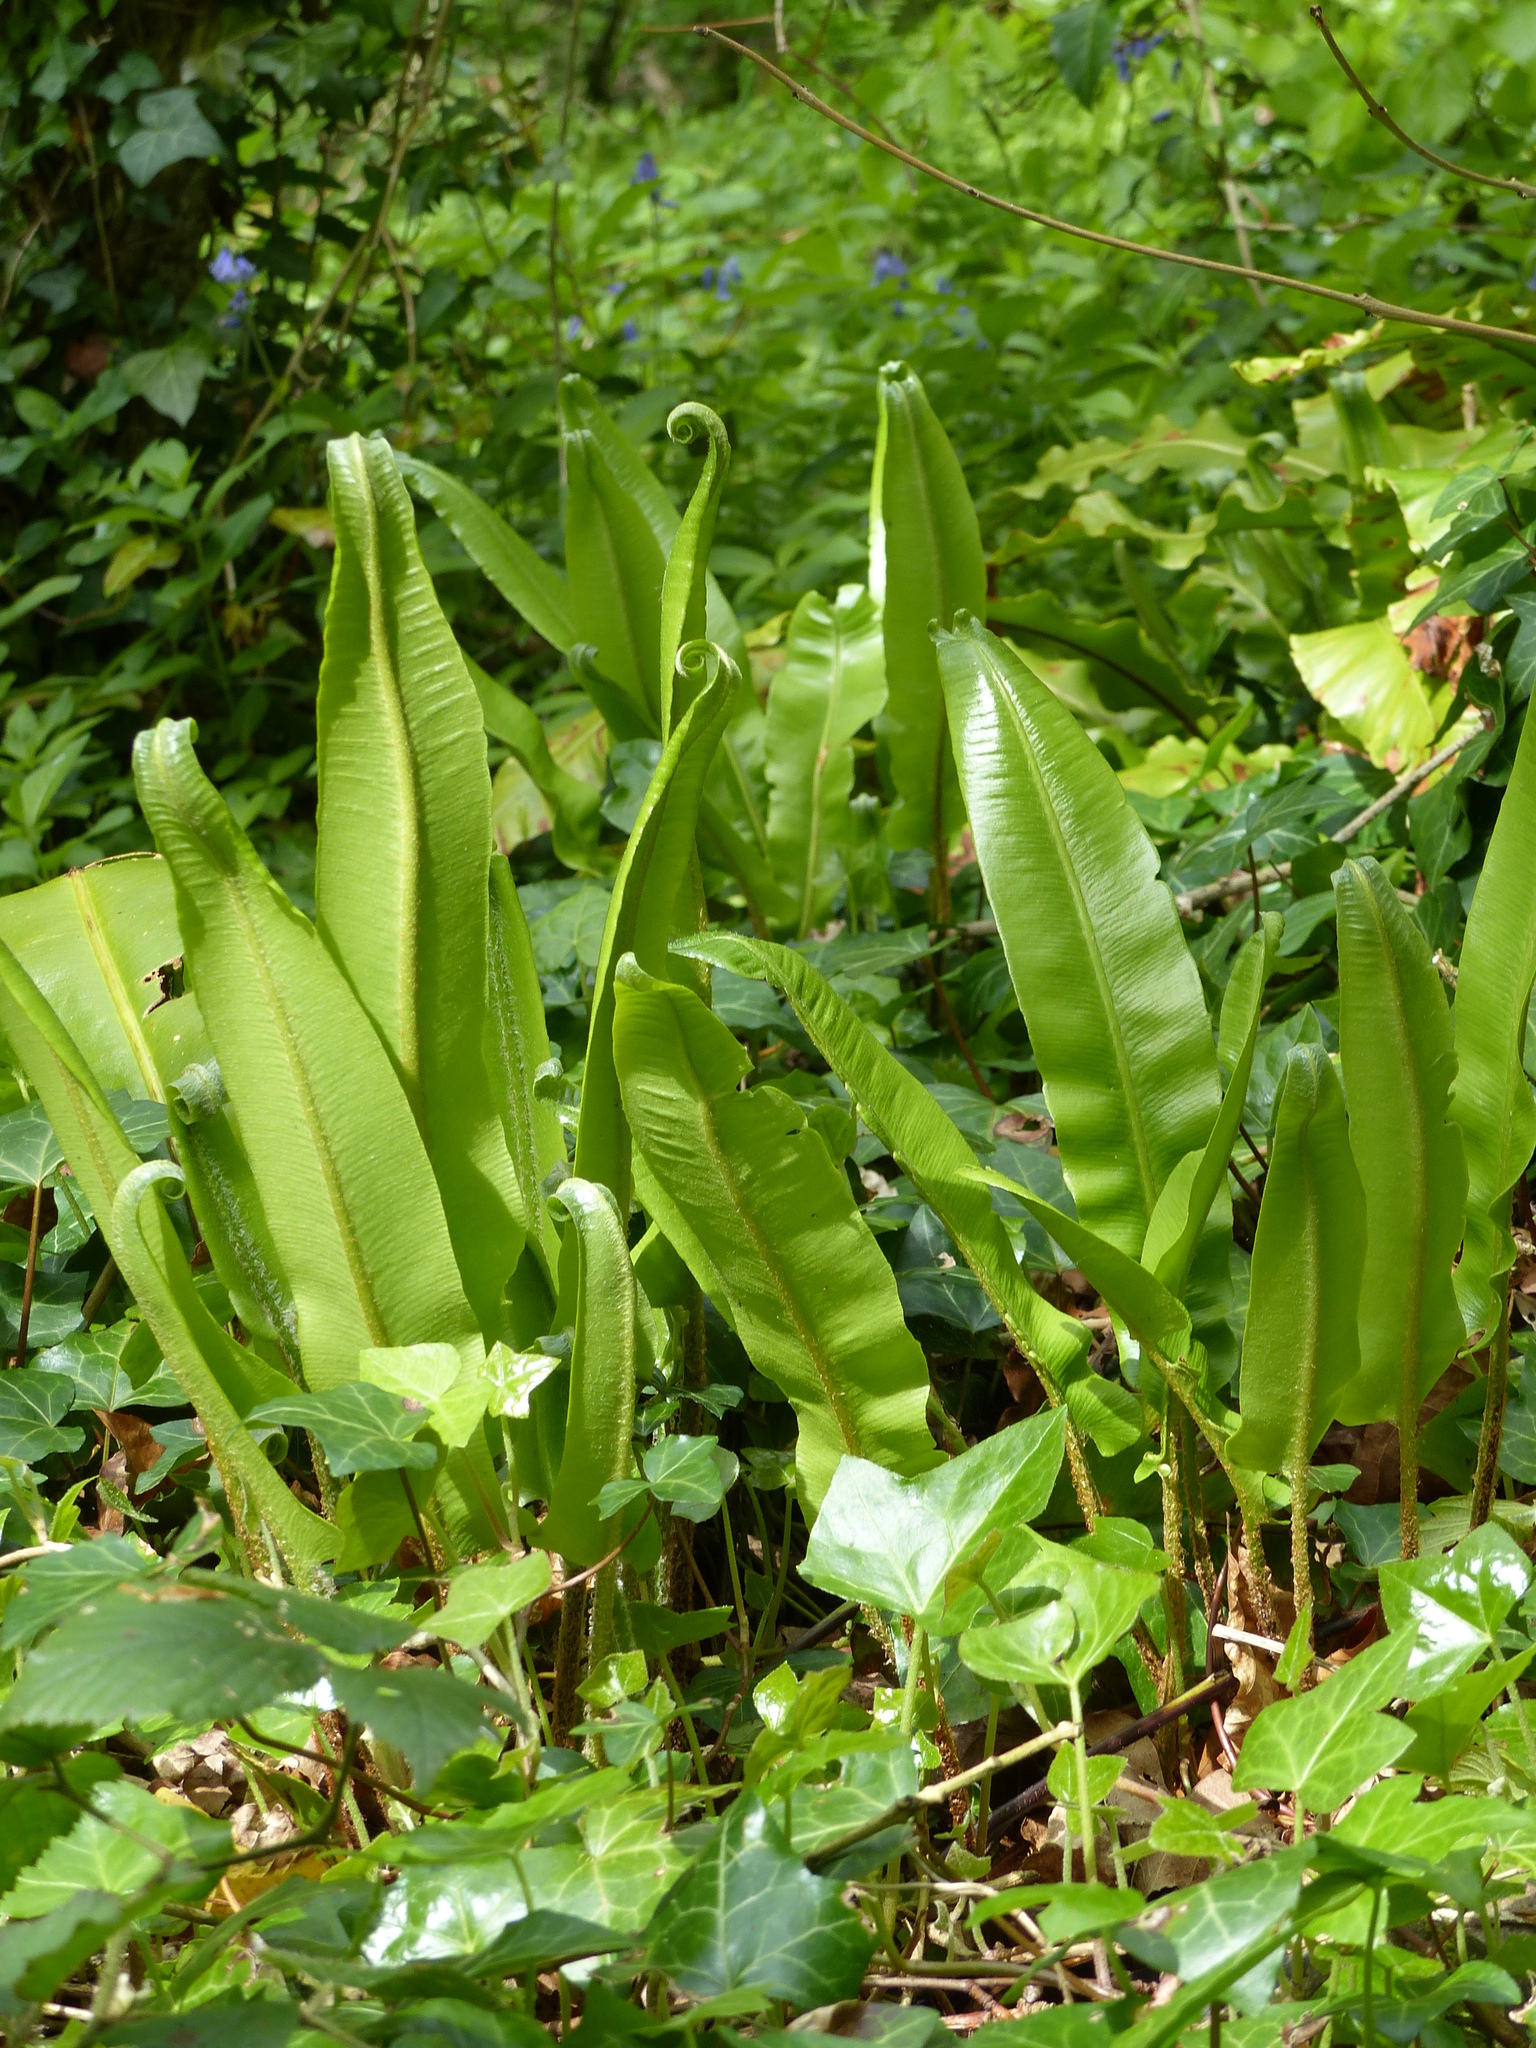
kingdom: Plantae
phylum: Tracheophyta
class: Polypodiopsida
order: Polypodiales
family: Aspleniaceae
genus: Asplenium
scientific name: Asplenium scolopendrium
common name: Hart's-tongue fern
